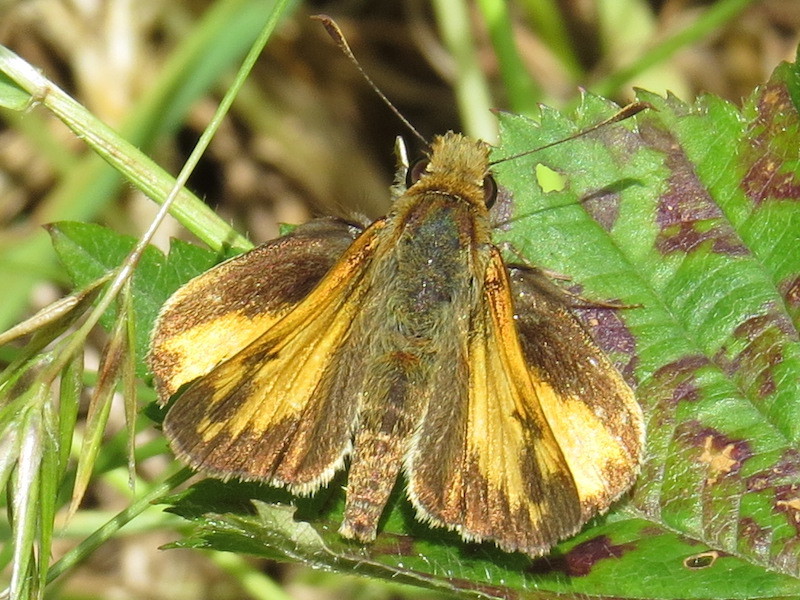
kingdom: Animalia
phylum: Arthropoda
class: Insecta
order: Lepidoptera
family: Hesperiidae
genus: Lon
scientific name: Lon zabulon
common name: Zabulon skipper
